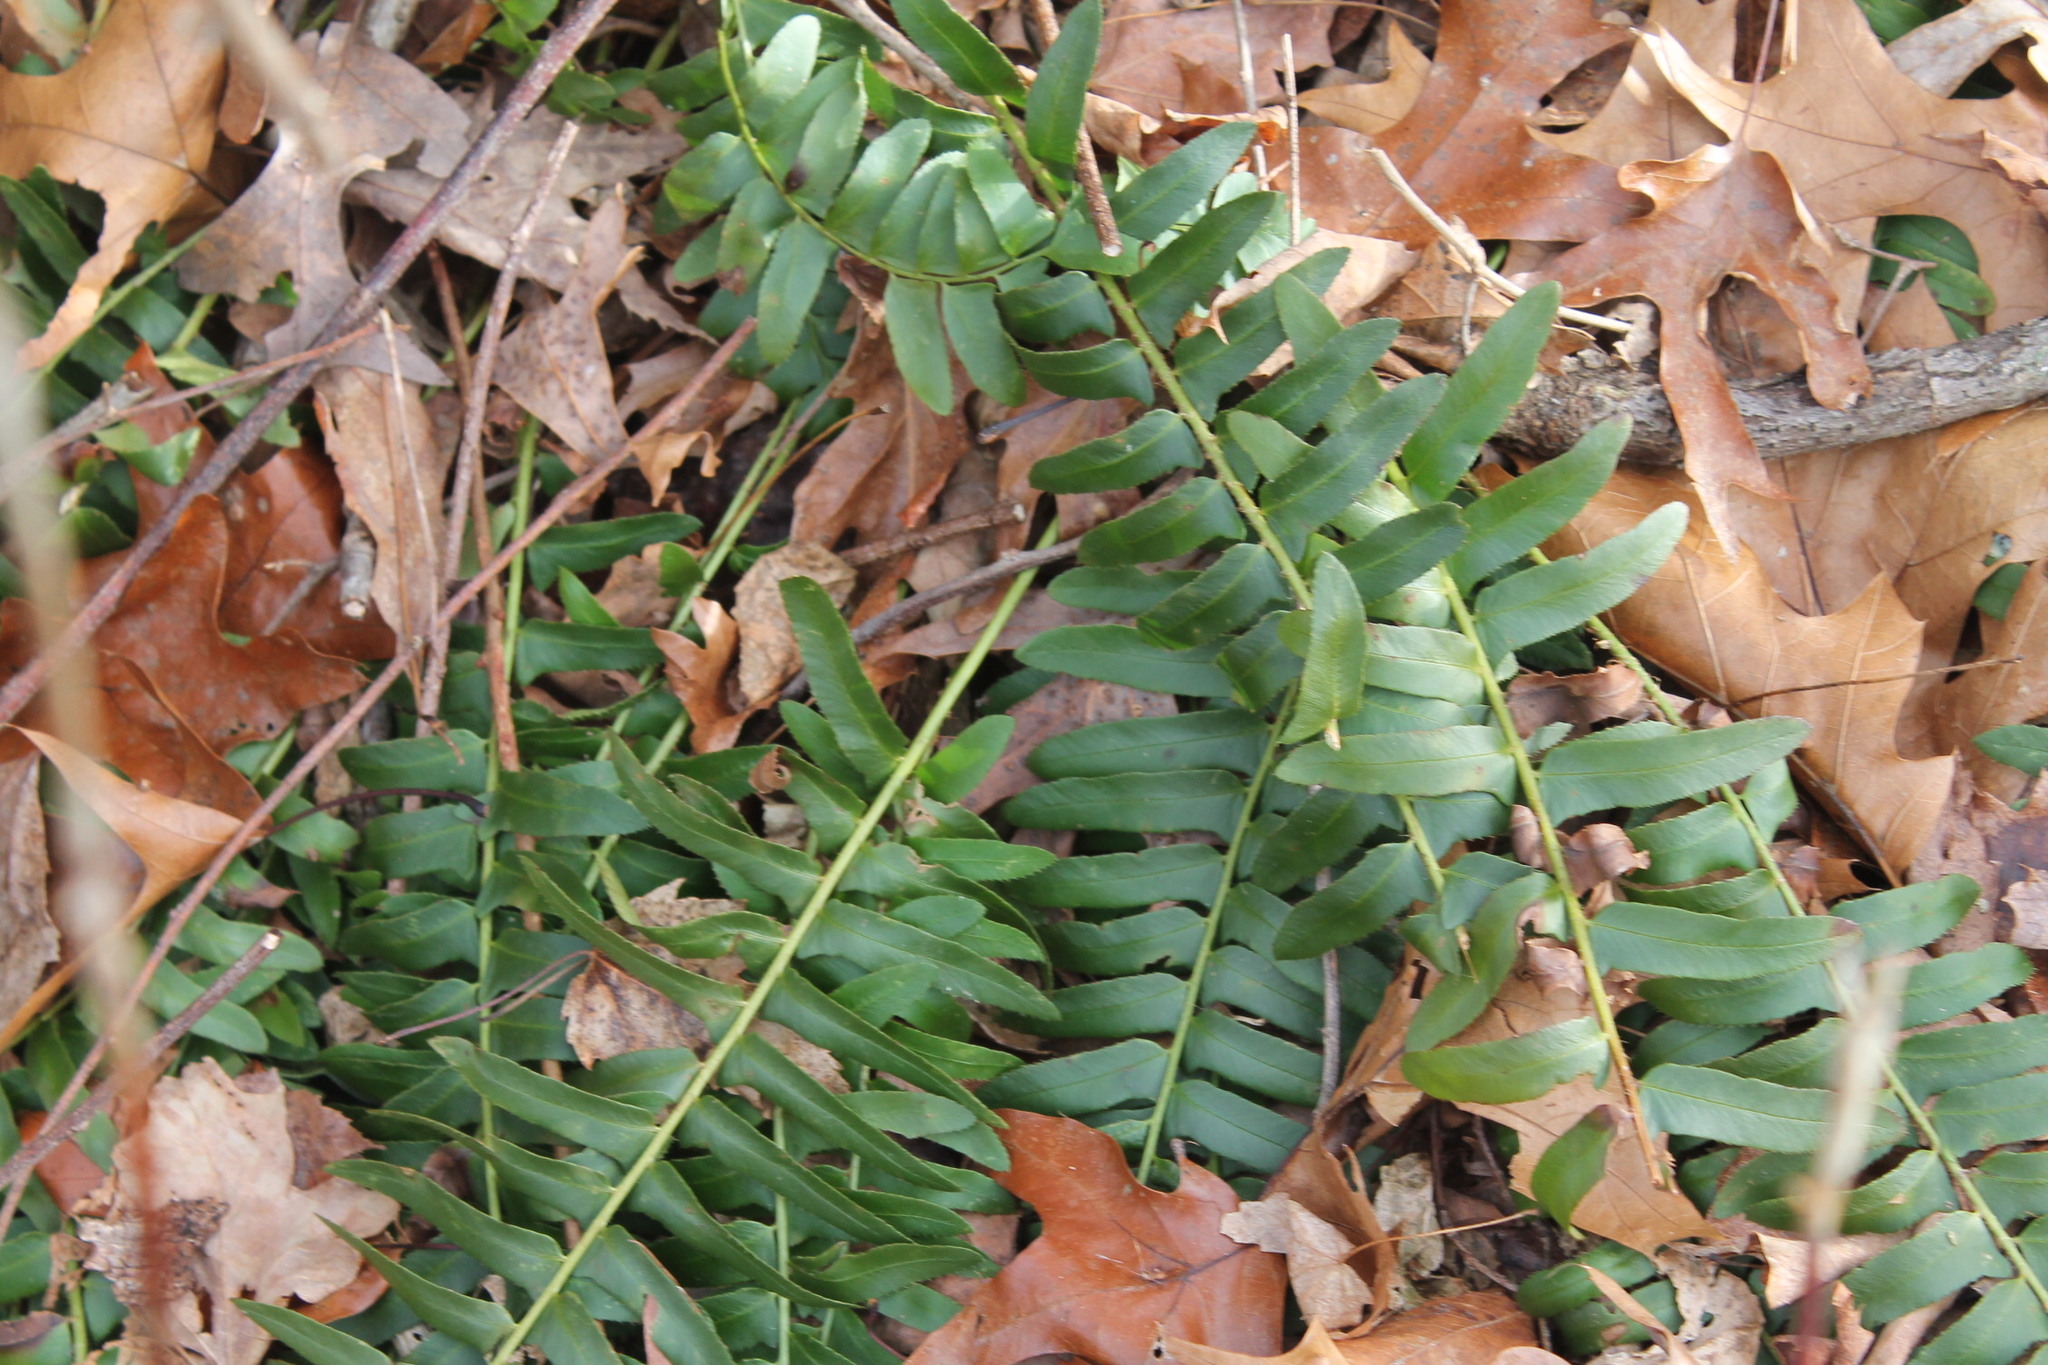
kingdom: Plantae
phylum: Tracheophyta
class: Polypodiopsida
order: Polypodiales
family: Dryopteridaceae
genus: Polystichum
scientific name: Polystichum acrostichoides
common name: Christmas fern
